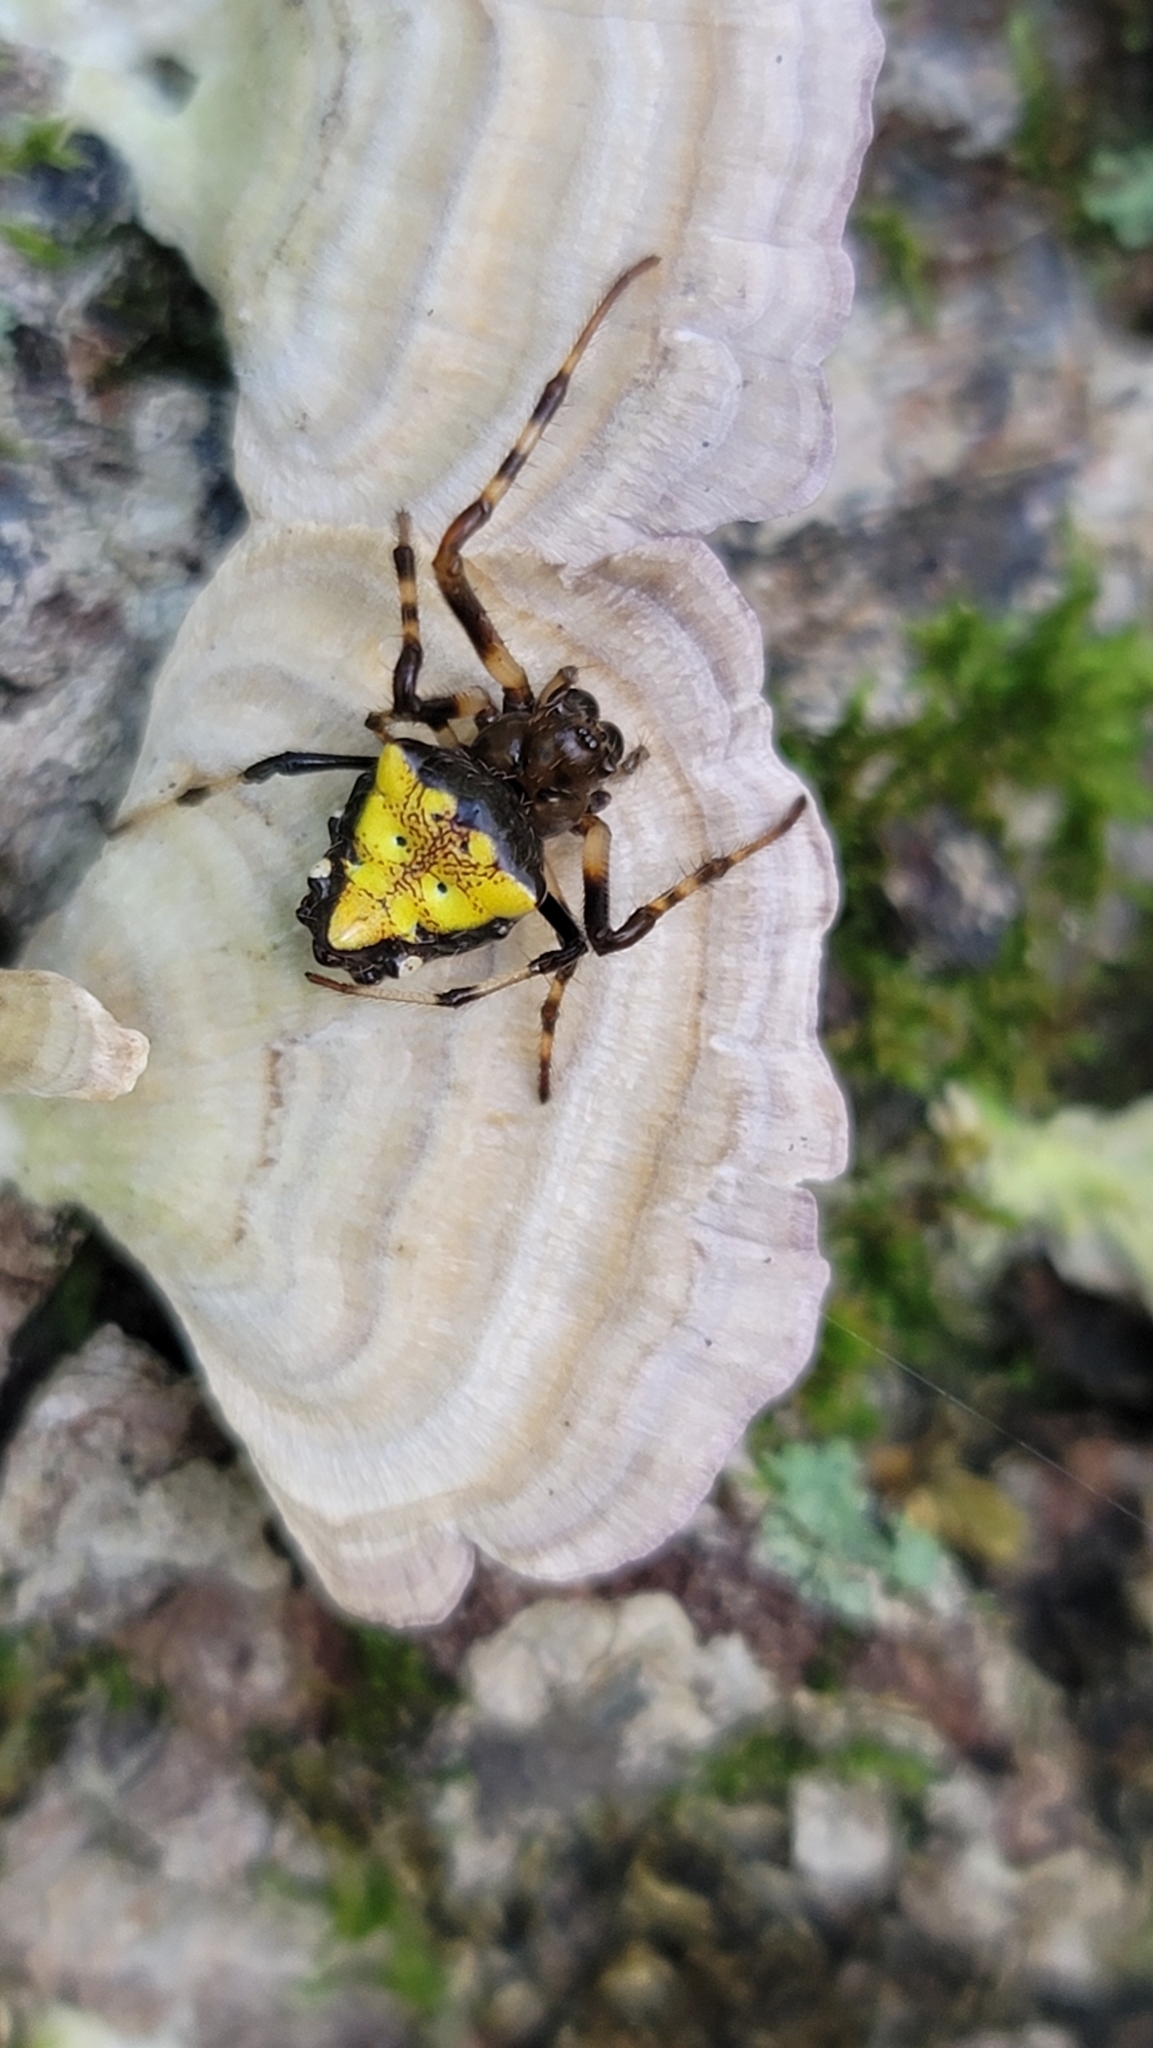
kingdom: Animalia
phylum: Arthropoda
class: Arachnida
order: Araneae
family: Araneidae
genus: Verrucosa
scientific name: Verrucosa arenata
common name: Orb weavers
